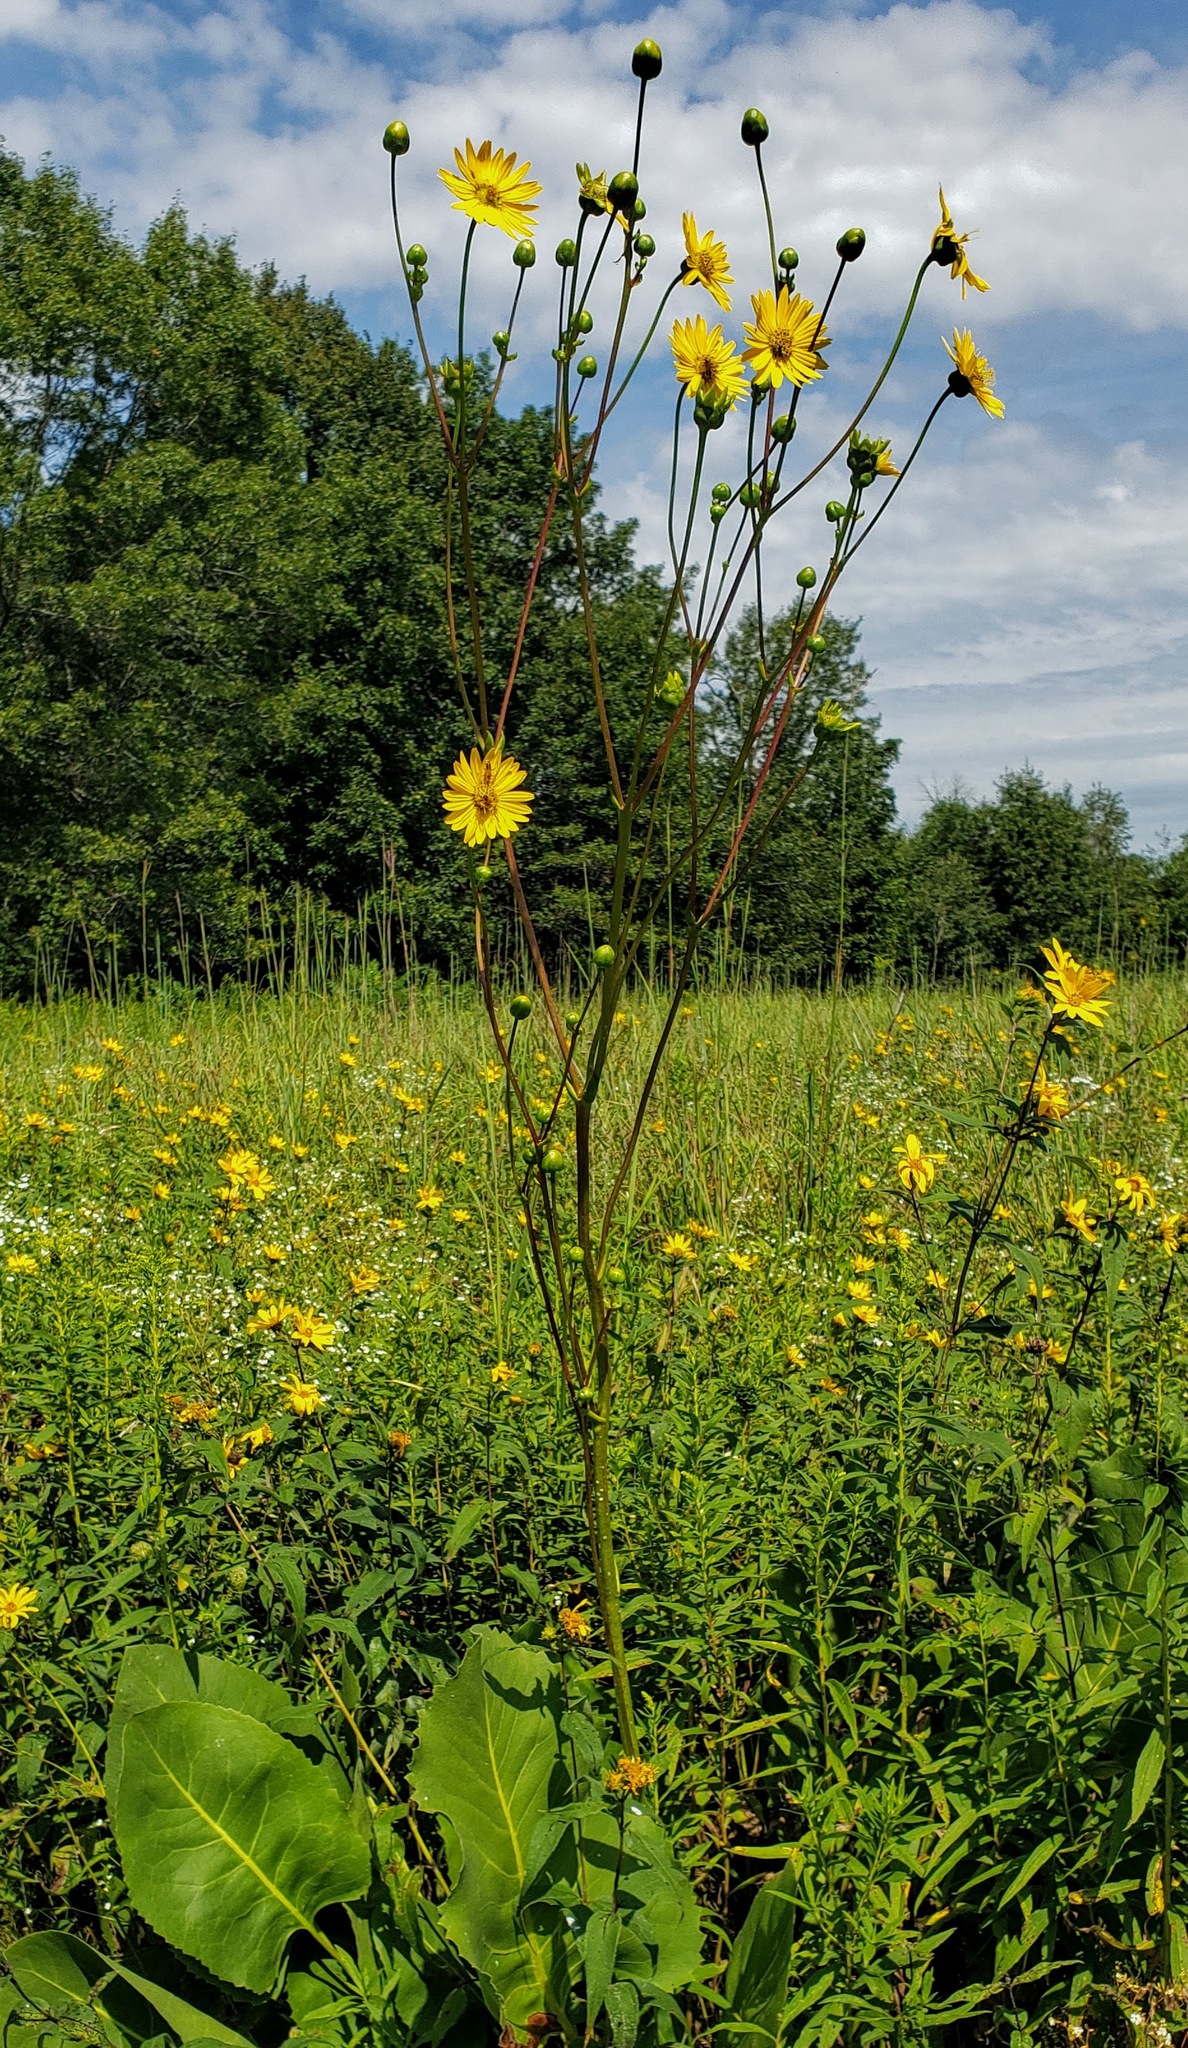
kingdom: Plantae
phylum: Tracheophyta
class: Magnoliopsida
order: Asterales
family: Asteraceae
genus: Silphium
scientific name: Silphium terebinthinaceum
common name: Basal-leaf rosinweed
